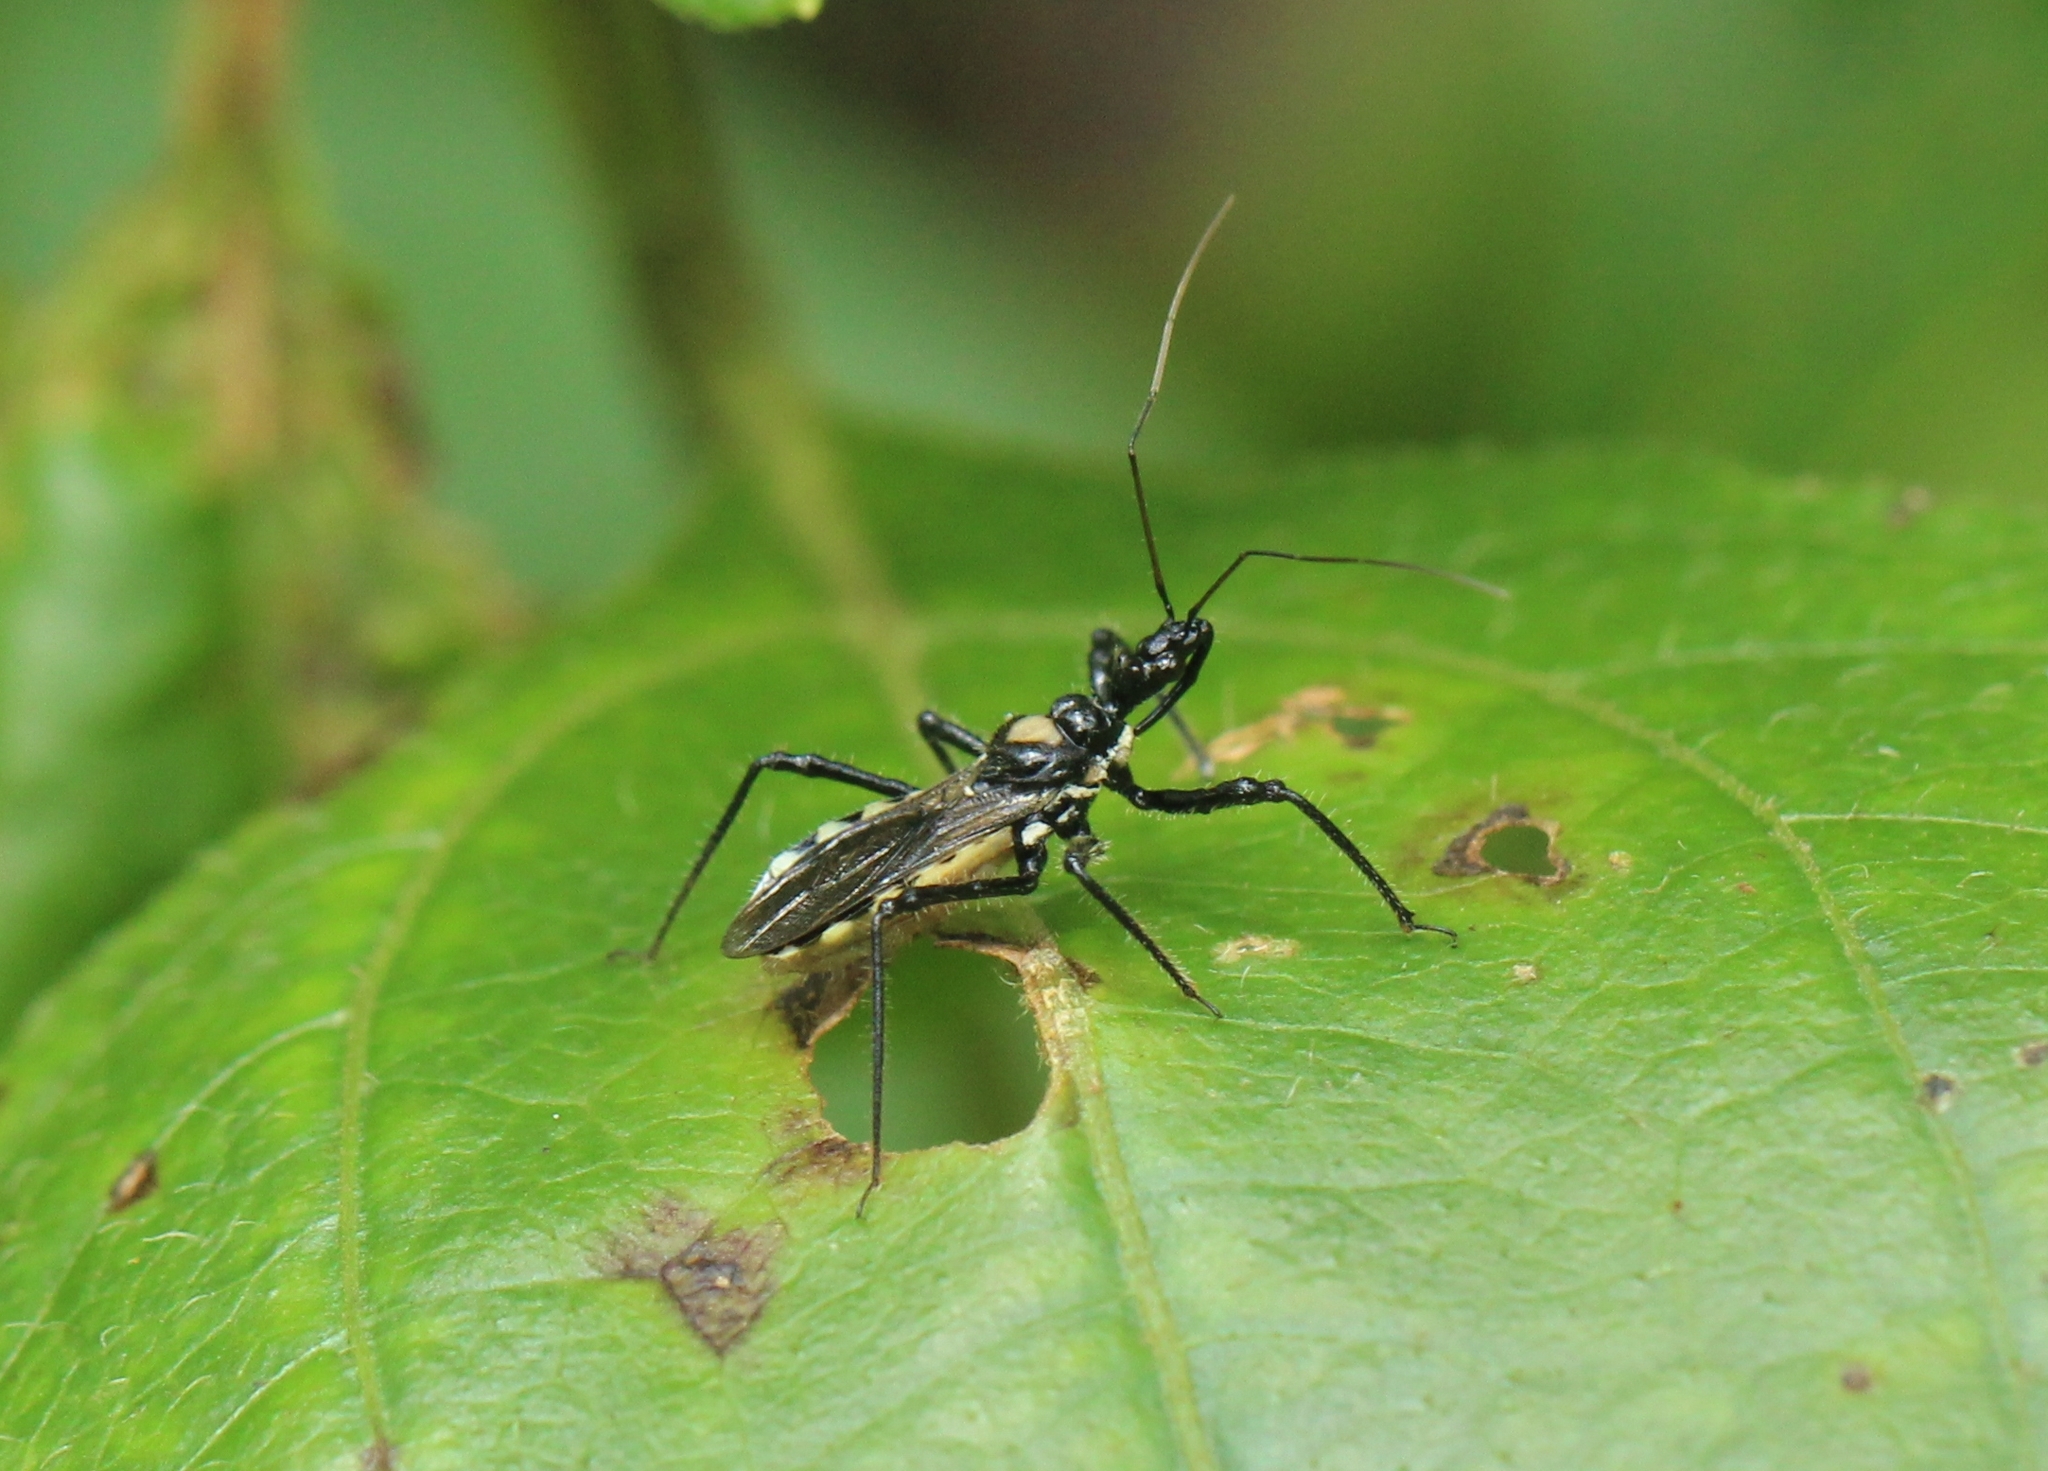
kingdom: Animalia
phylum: Arthropoda
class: Insecta
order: Hemiptera
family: Reduviidae
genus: Sphedanolestes
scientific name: Sphedanolestes signatus
